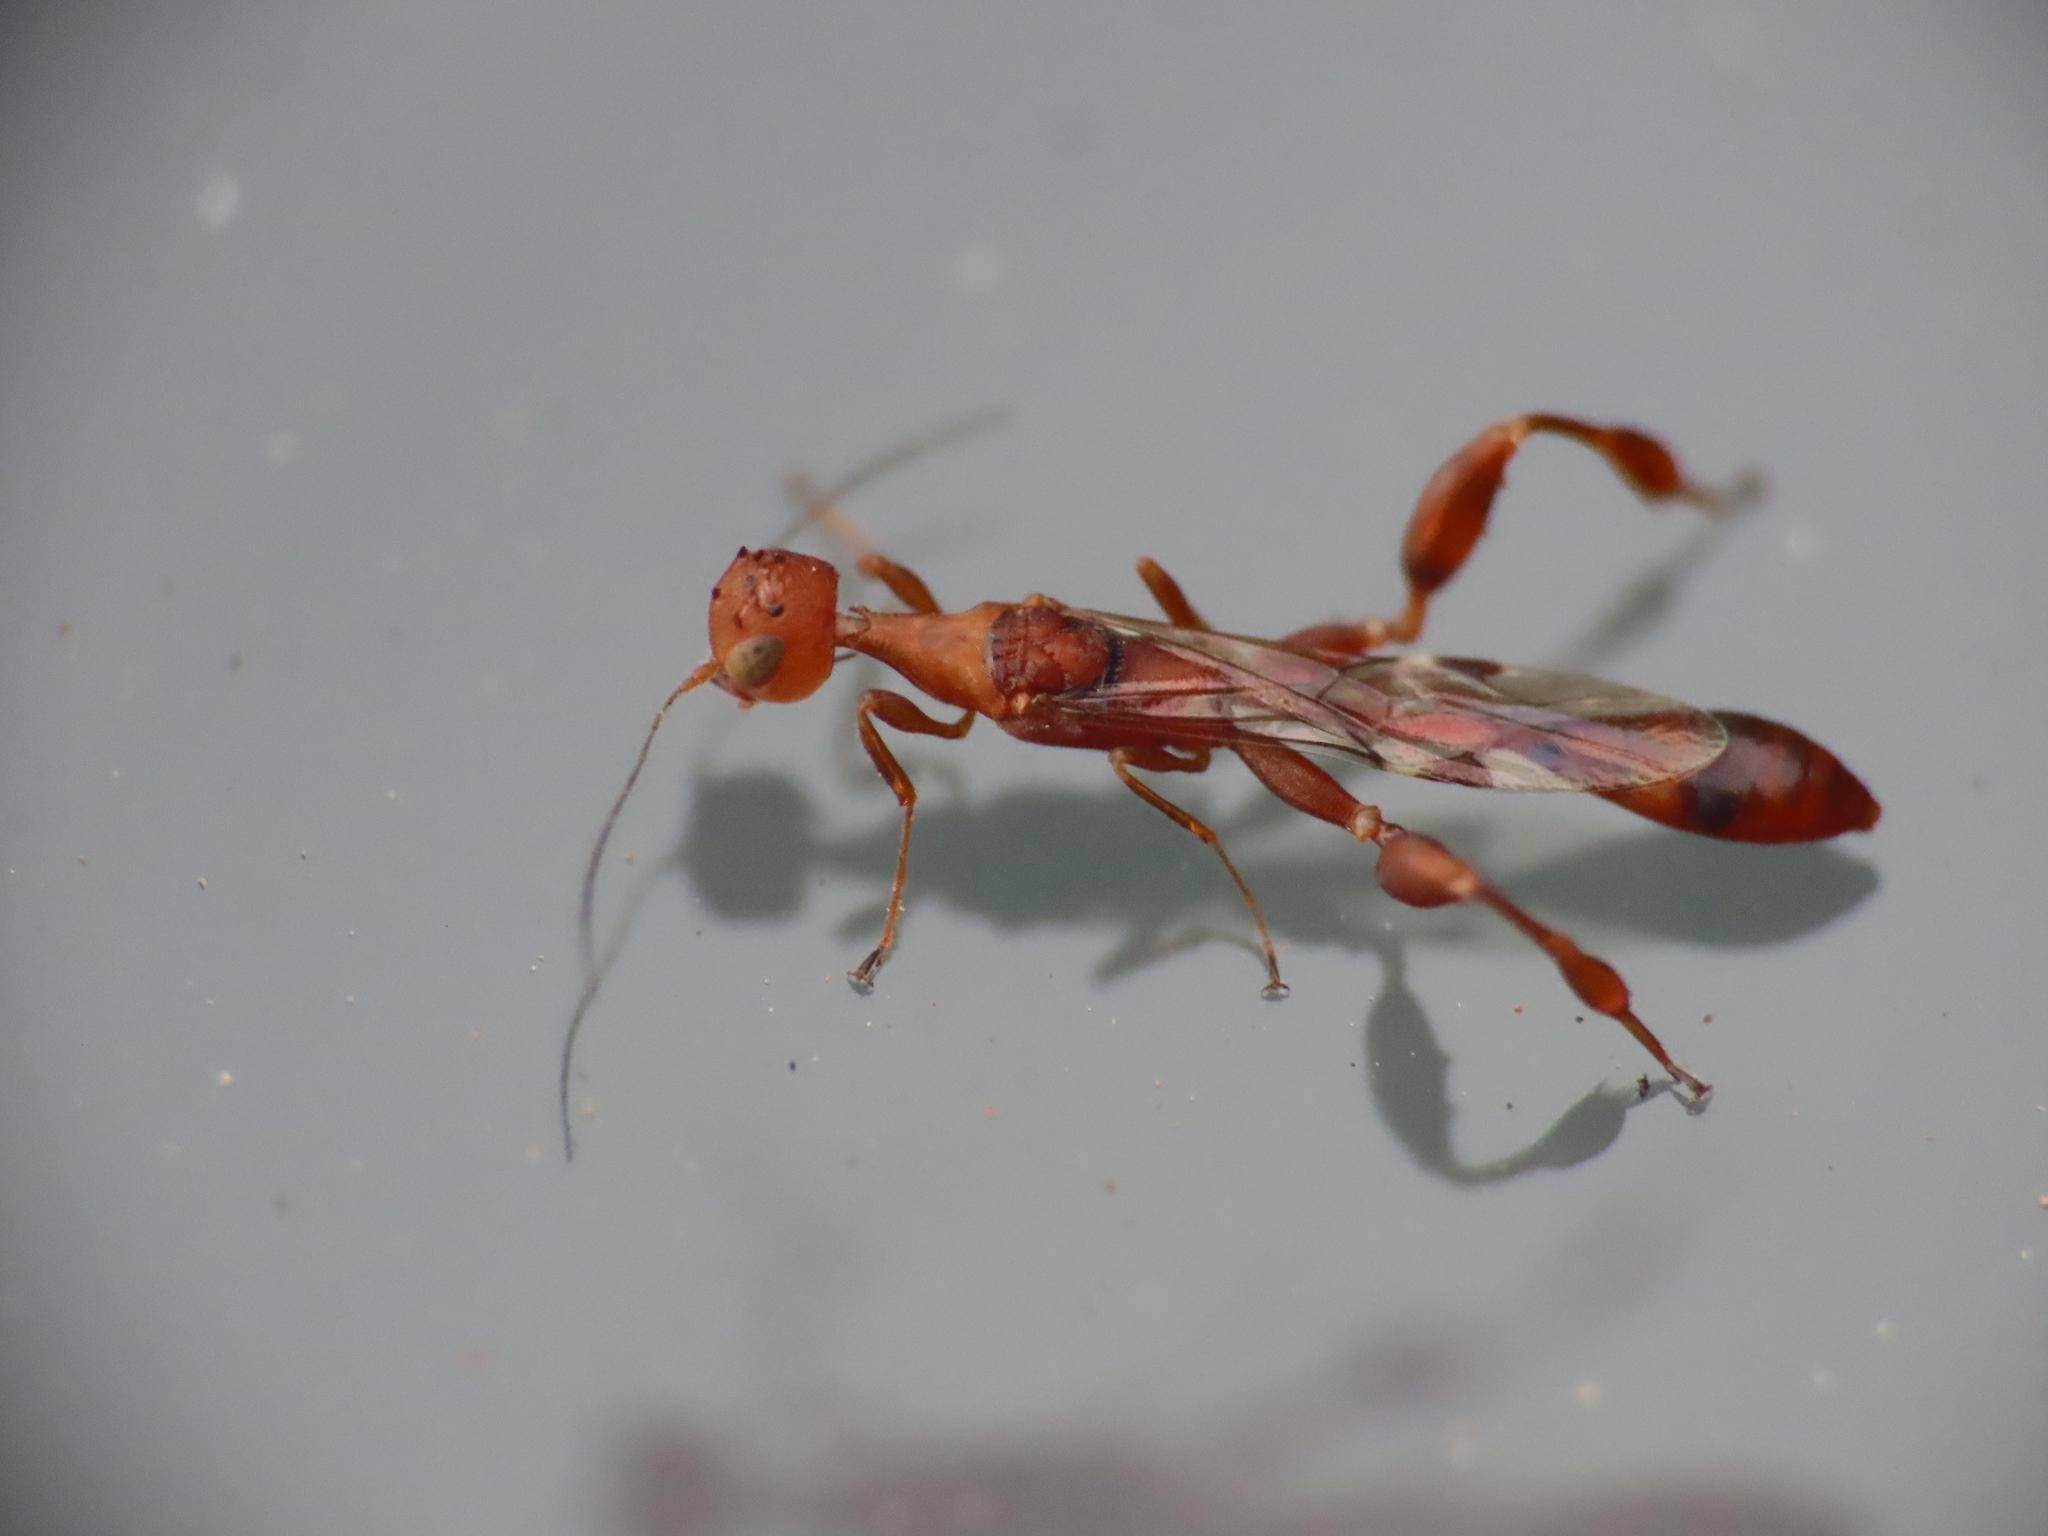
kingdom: Animalia
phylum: Arthropoda
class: Insecta
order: Hymenoptera
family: Stephanidae
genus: Foenatopus
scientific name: Foenatopus
